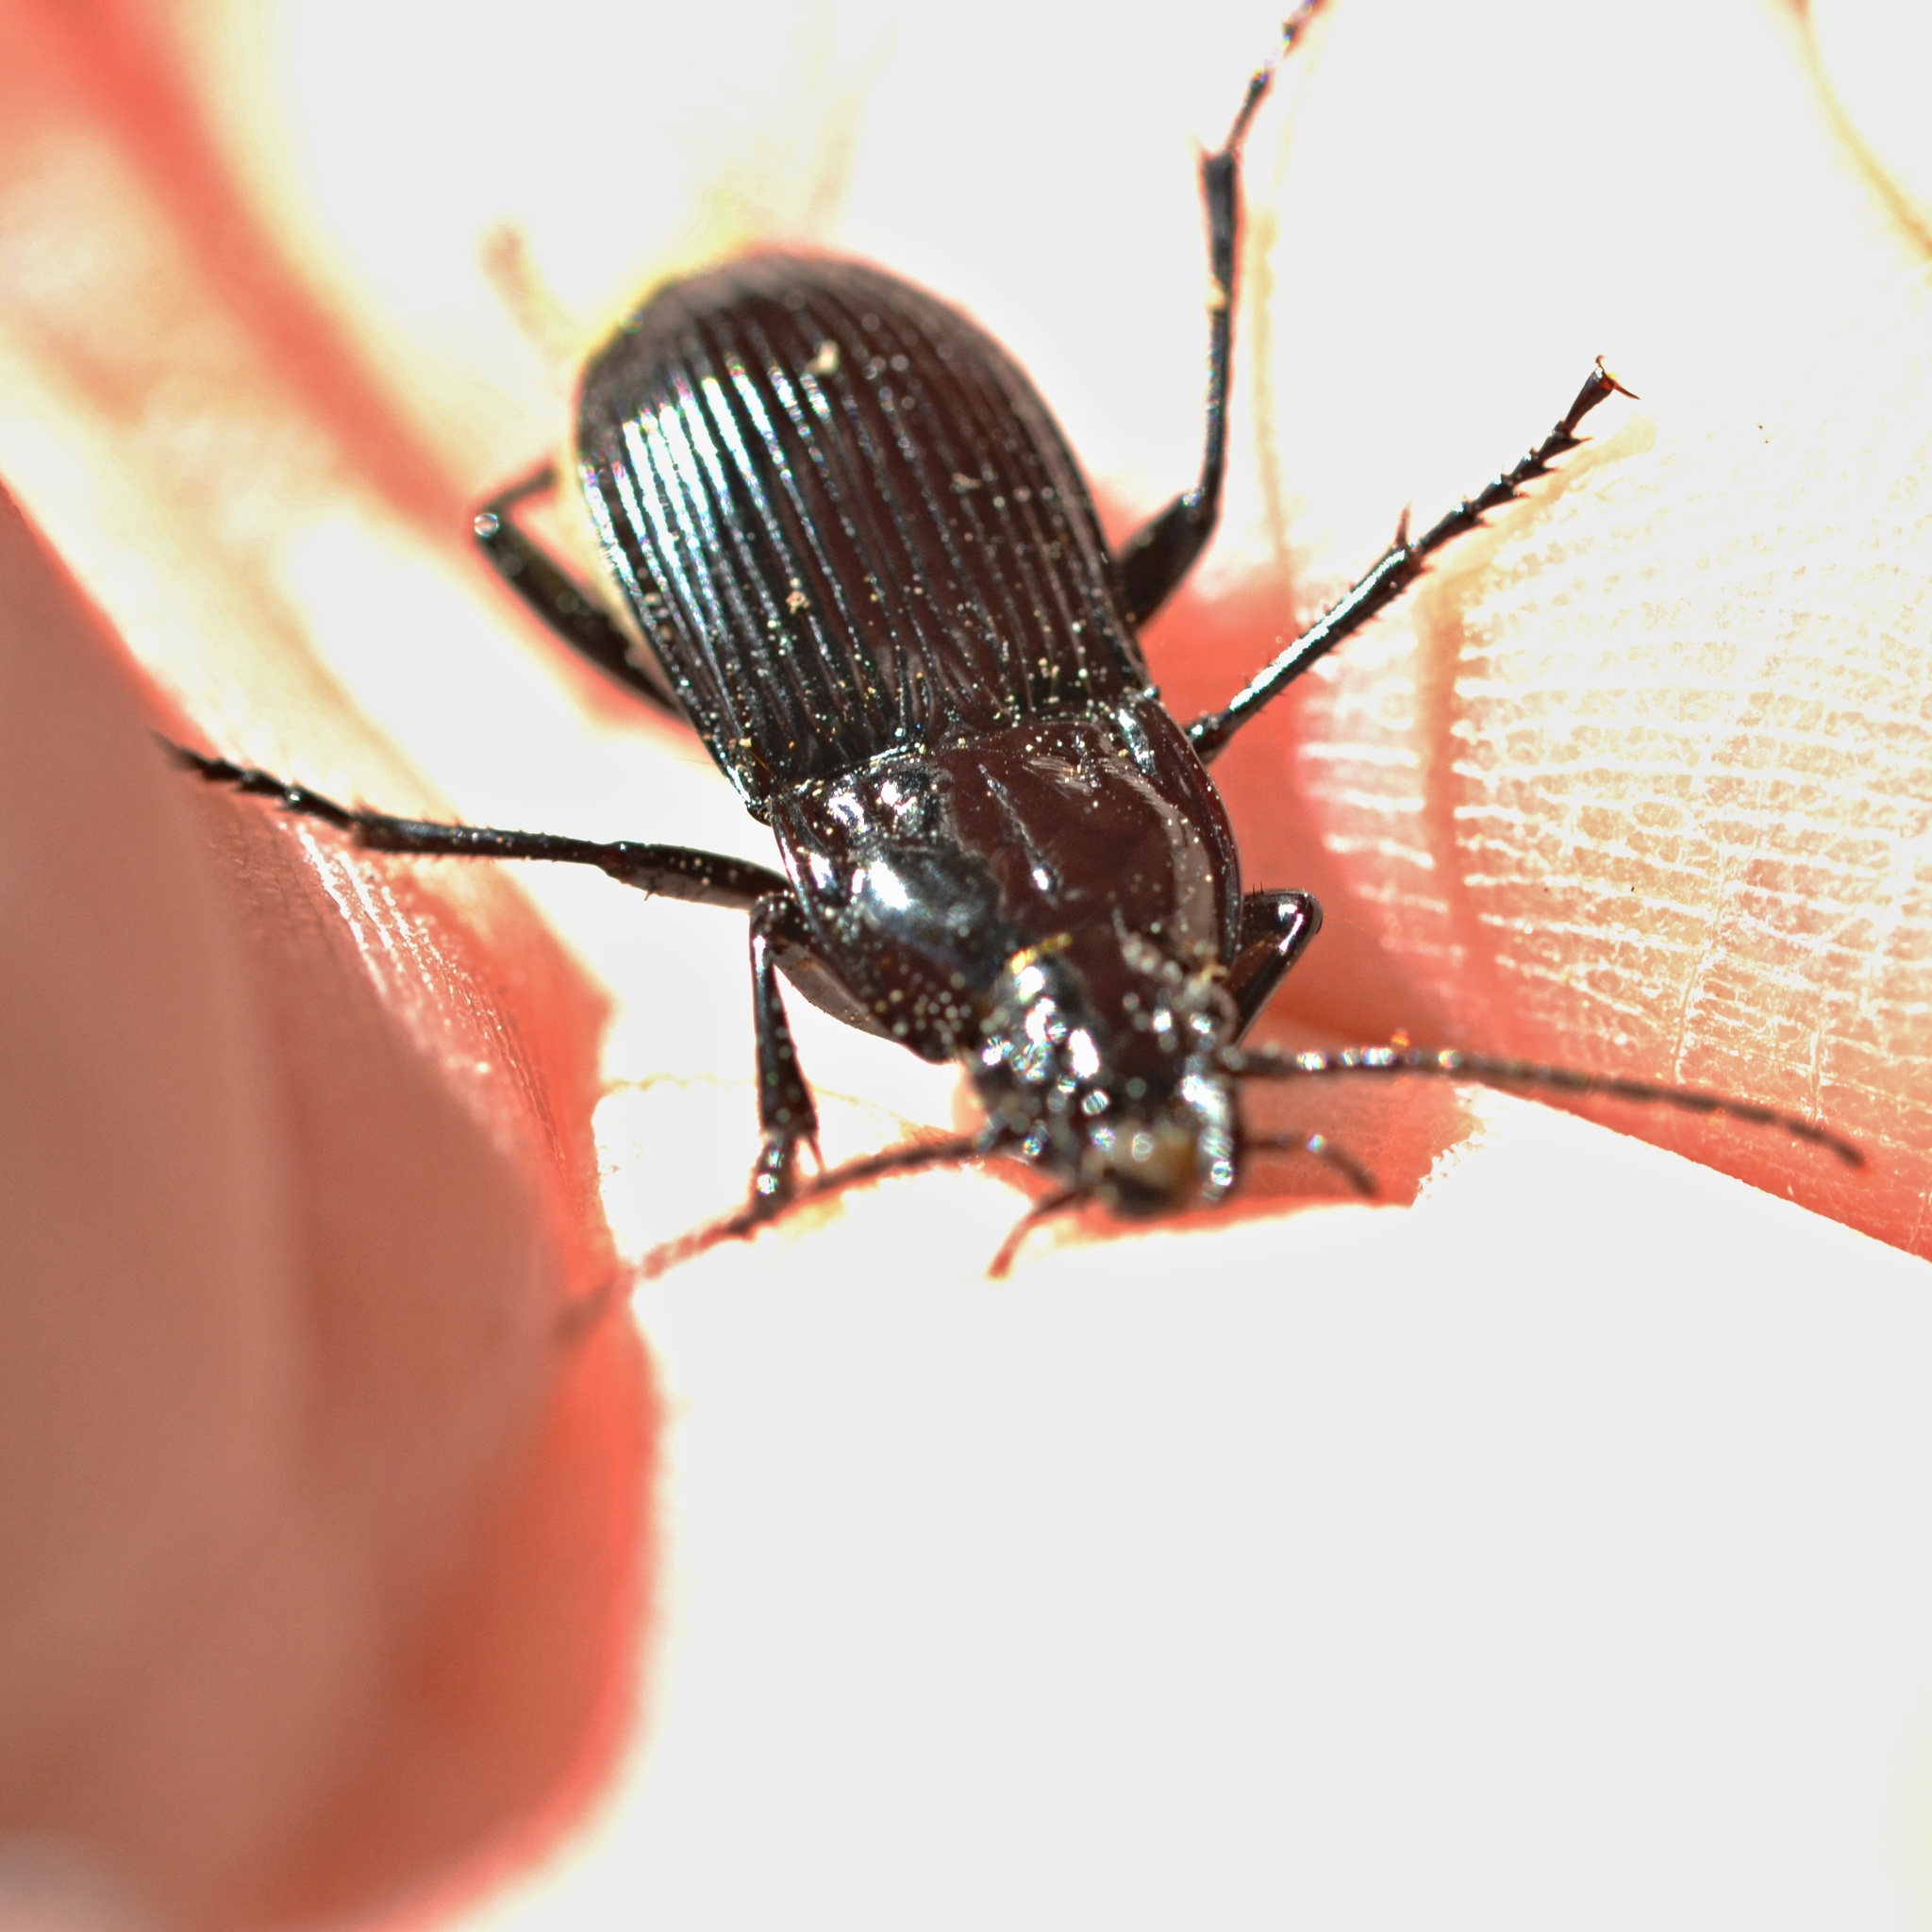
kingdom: Animalia
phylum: Arthropoda
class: Insecta
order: Coleoptera
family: Carabidae
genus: Abax
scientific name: Abax parallelepipedus
